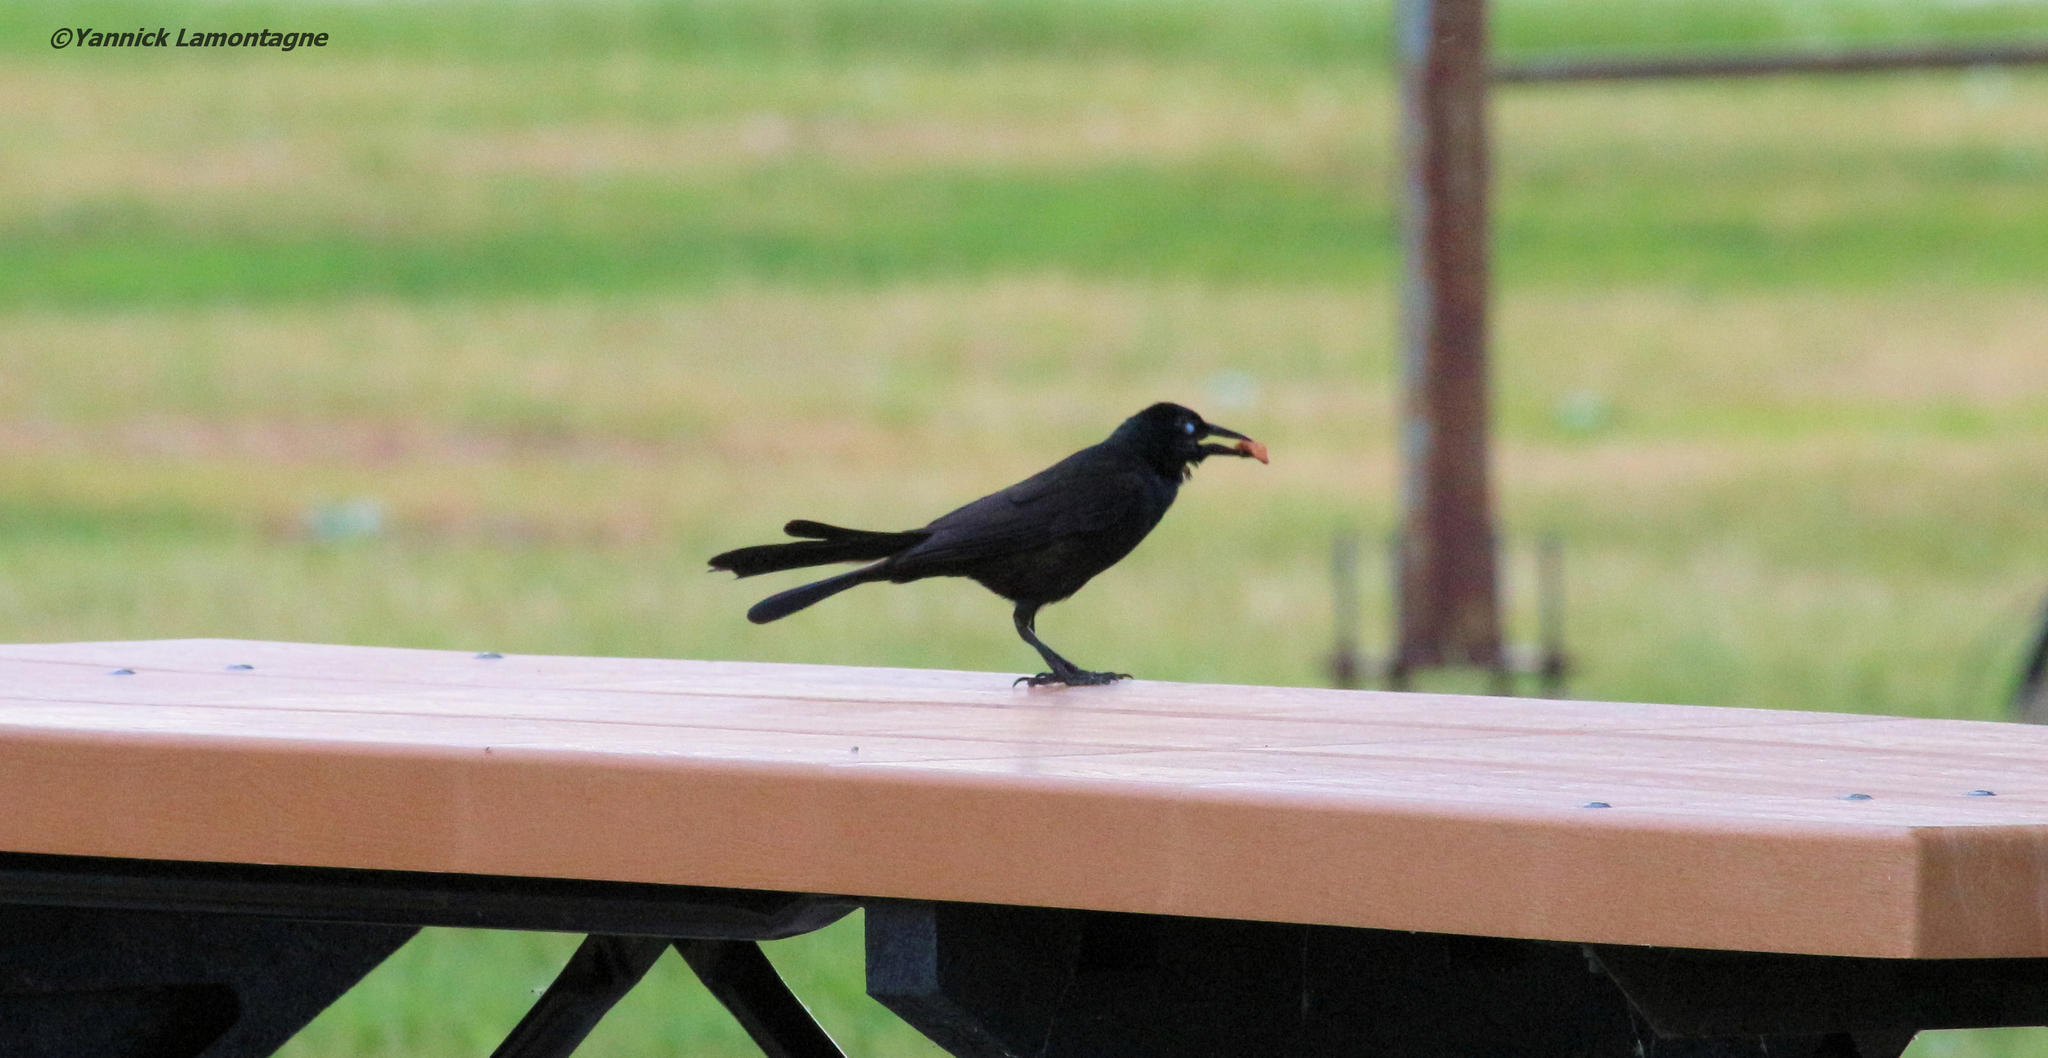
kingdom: Animalia
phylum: Chordata
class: Aves
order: Passeriformes
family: Icteridae
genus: Quiscalus
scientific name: Quiscalus quiscula
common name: Common grackle
